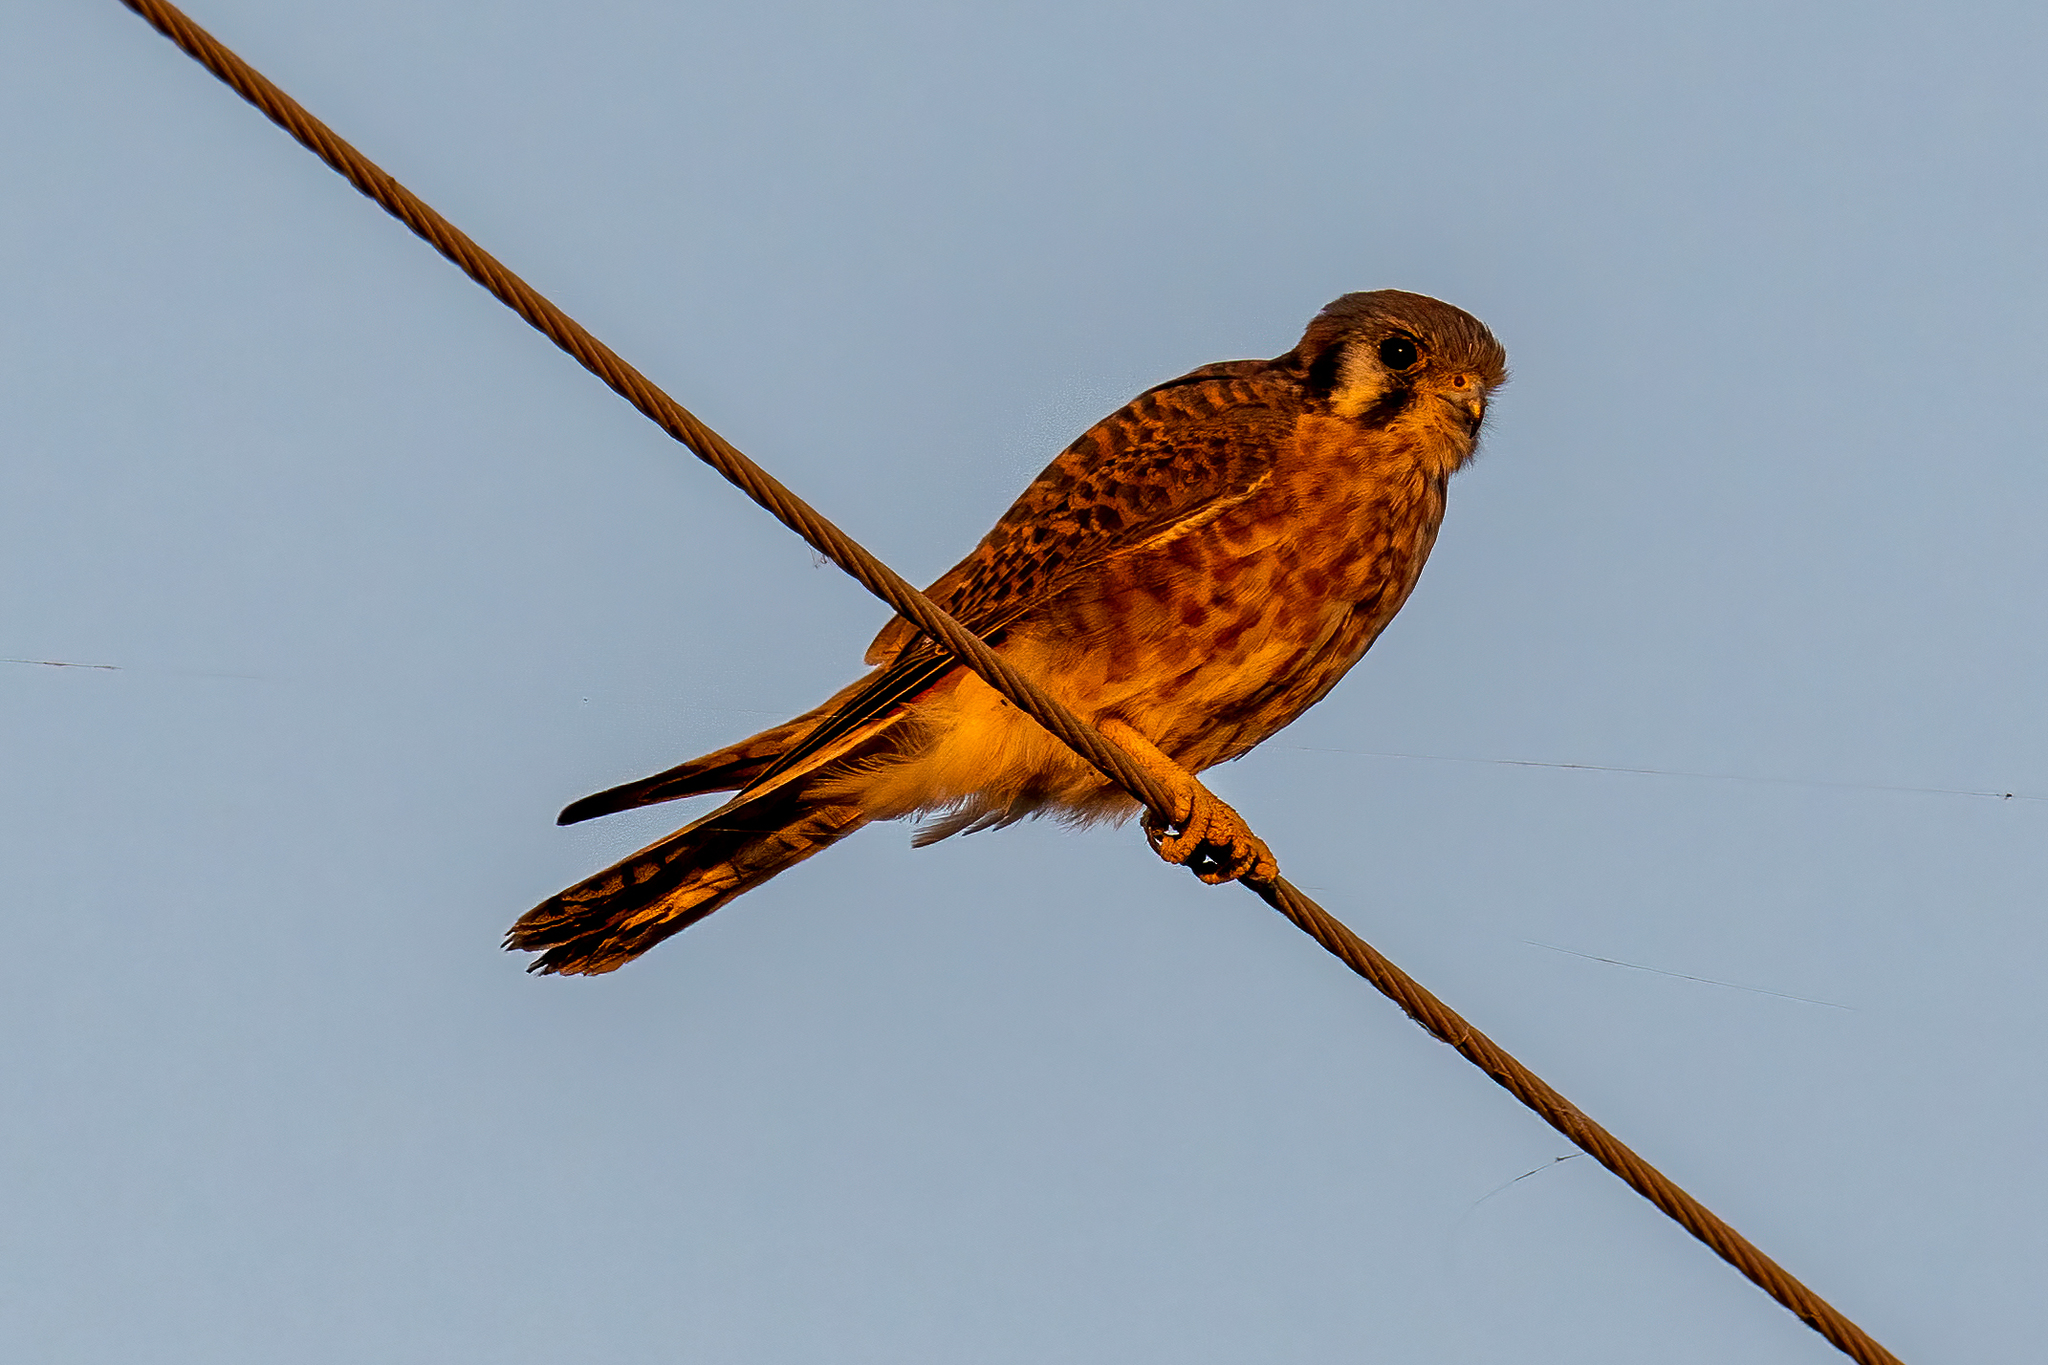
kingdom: Animalia
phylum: Chordata
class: Aves
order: Falconiformes
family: Falconidae
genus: Falco
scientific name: Falco sparverius
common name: American kestrel
